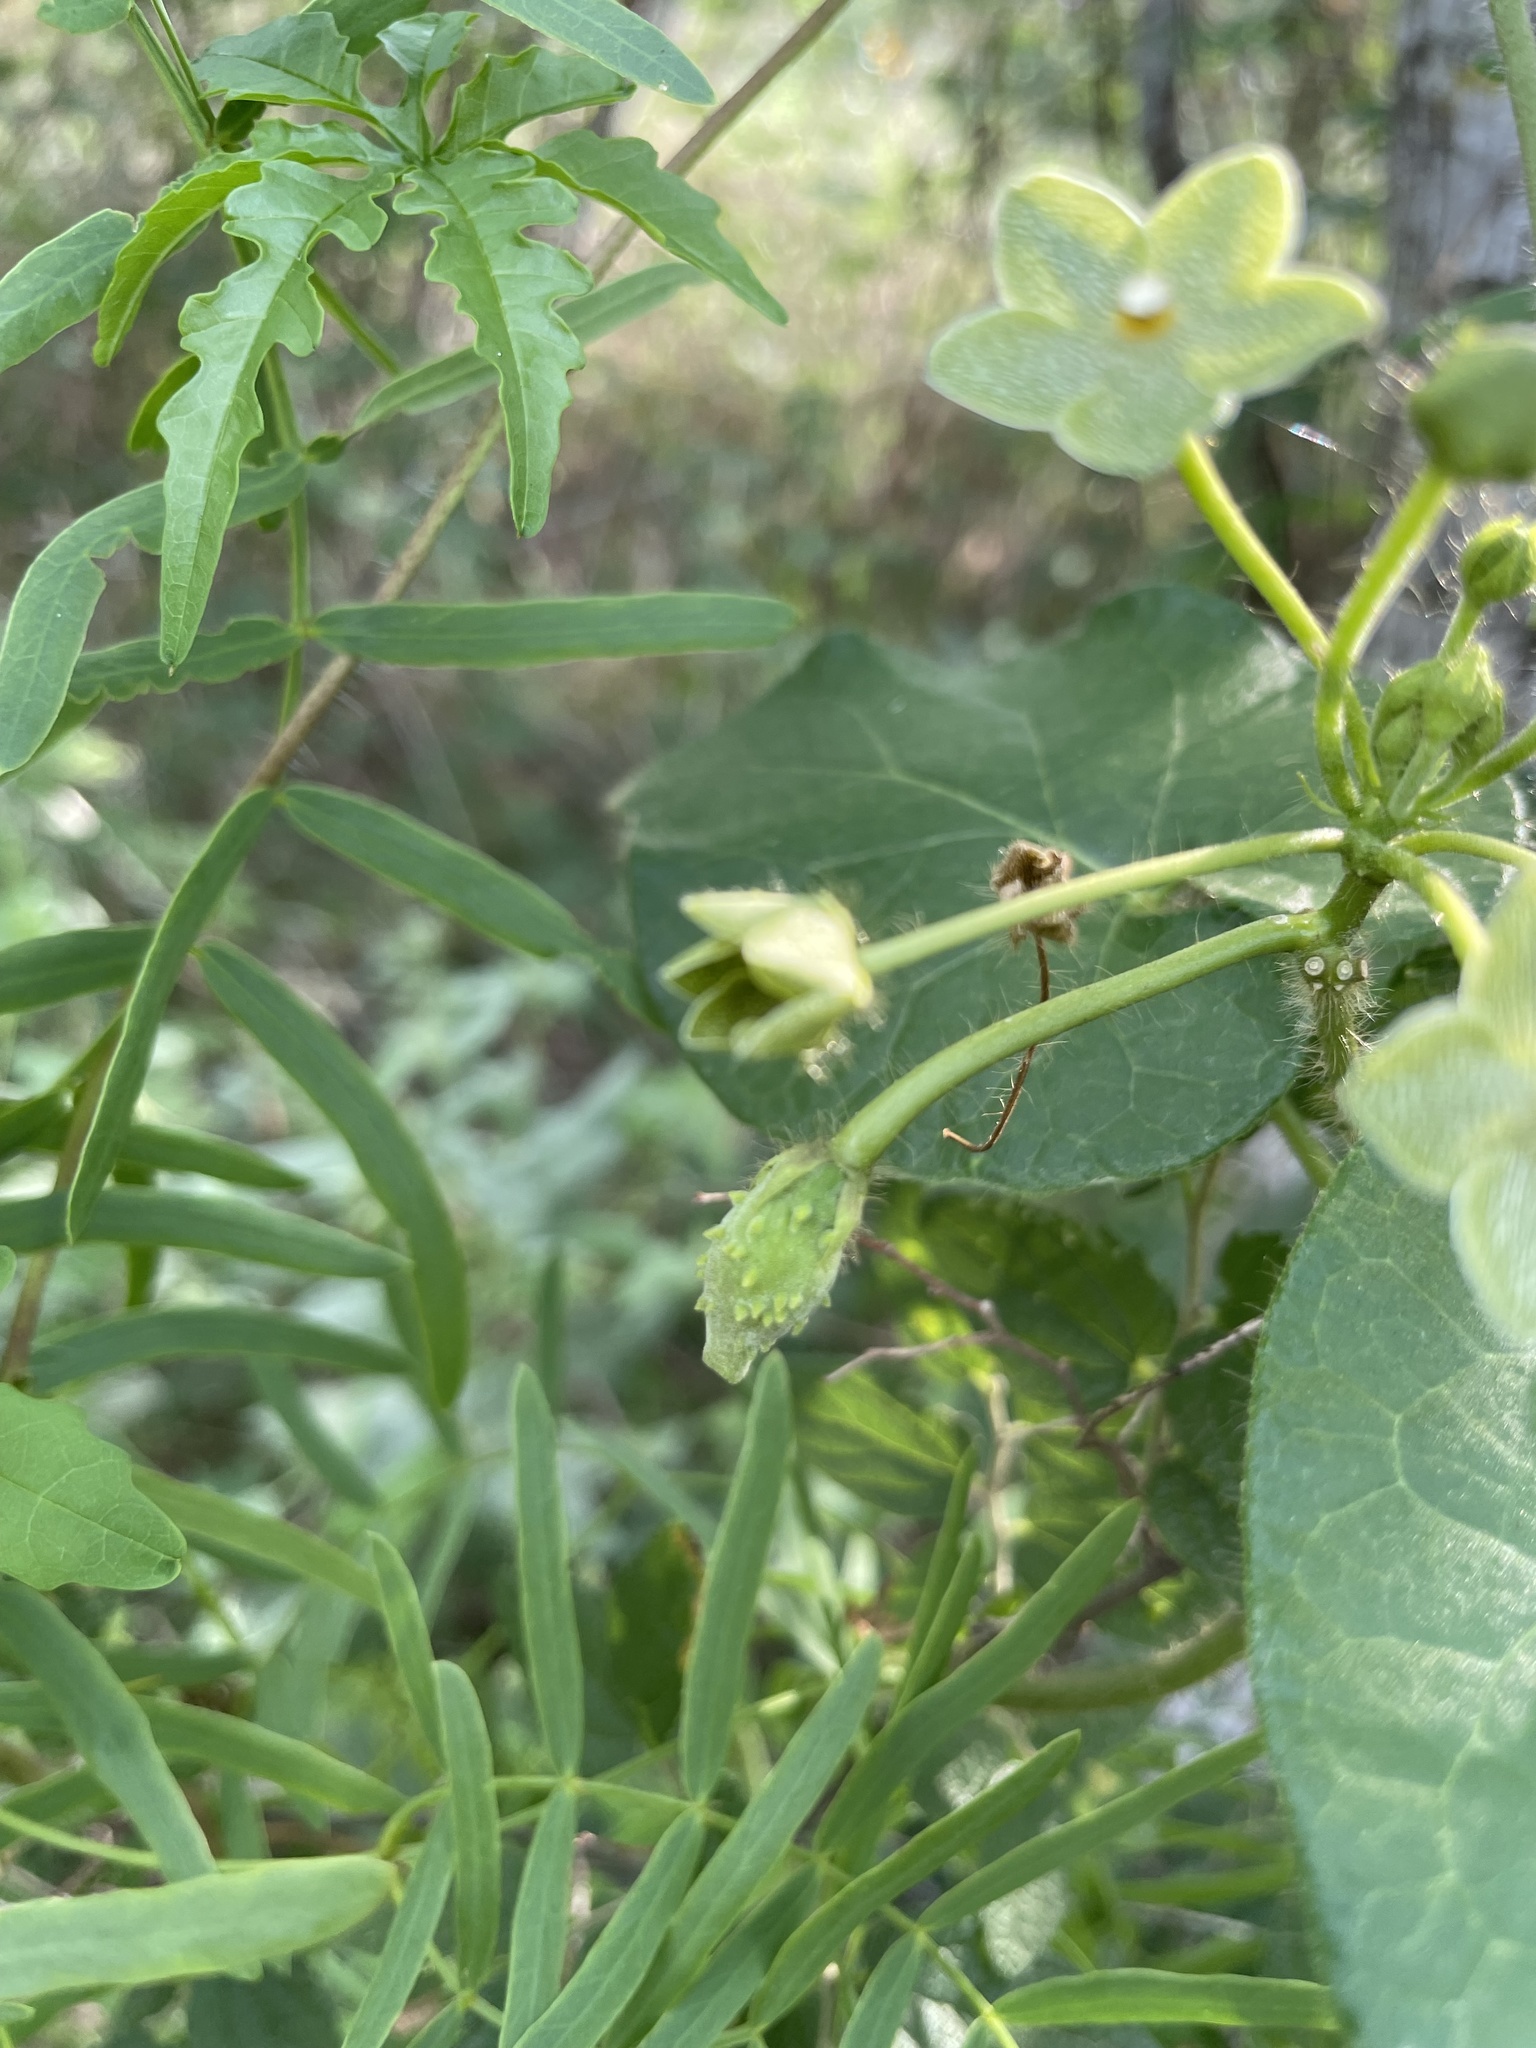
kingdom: Plantae
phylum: Tracheophyta
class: Magnoliopsida
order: Gentianales
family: Apocynaceae
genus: Dictyanthus
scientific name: Dictyanthus reticulatus
